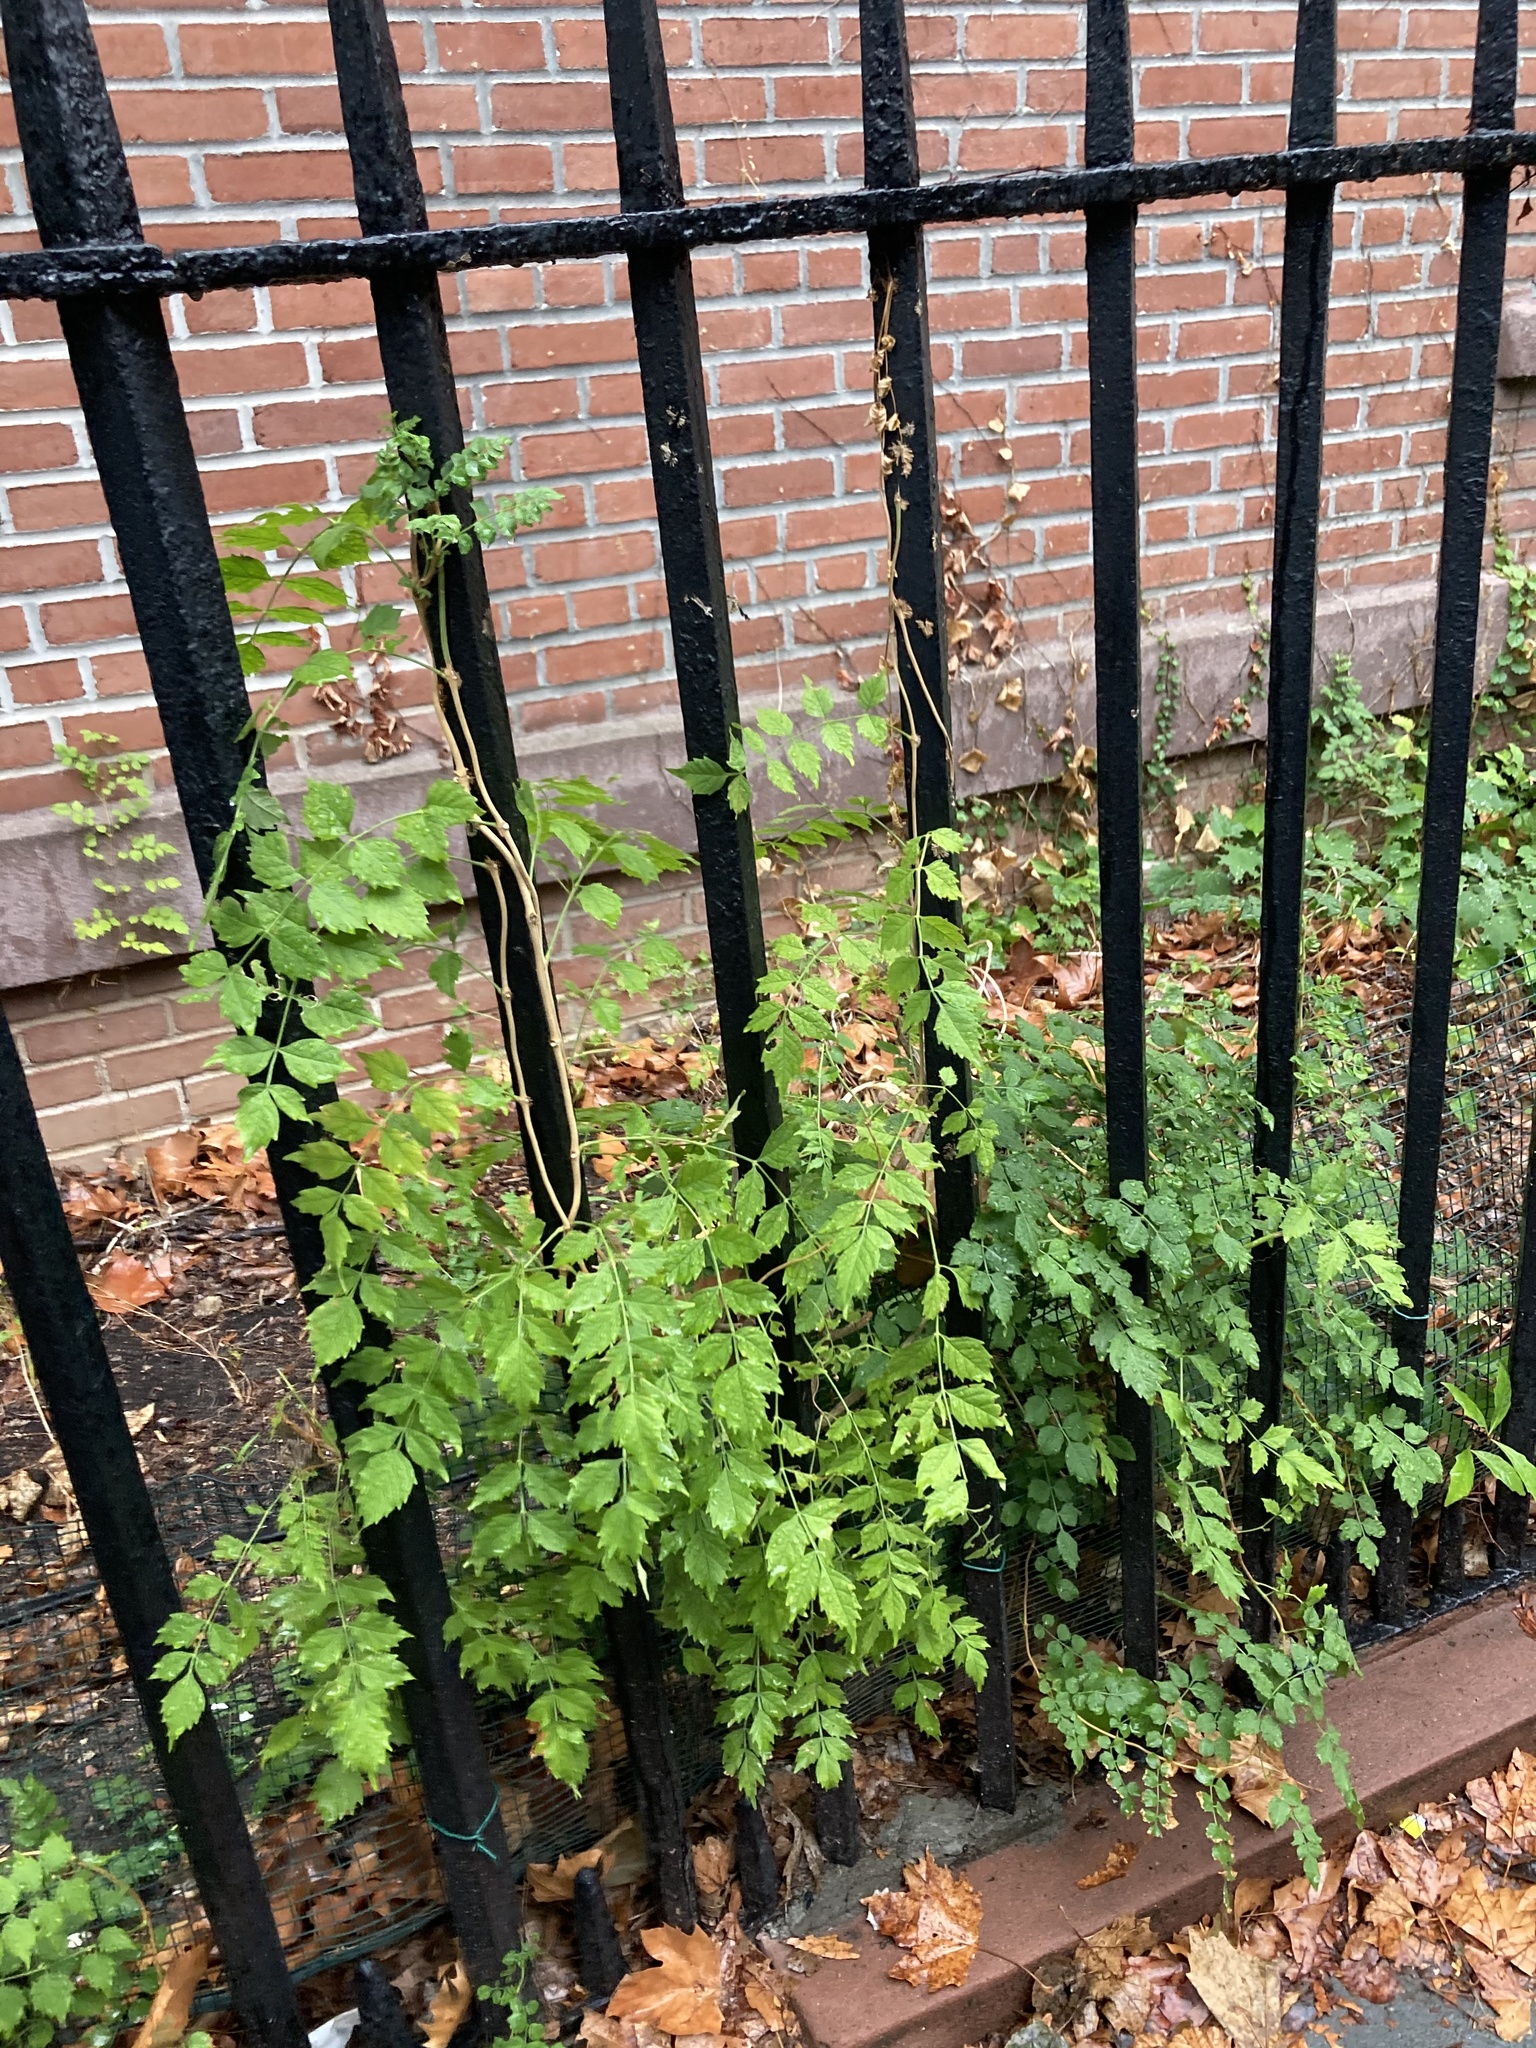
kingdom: Plantae
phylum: Tracheophyta
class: Magnoliopsida
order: Lamiales
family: Bignoniaceae
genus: Campsis
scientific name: Campsis radicans
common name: Trumpet-creeper
